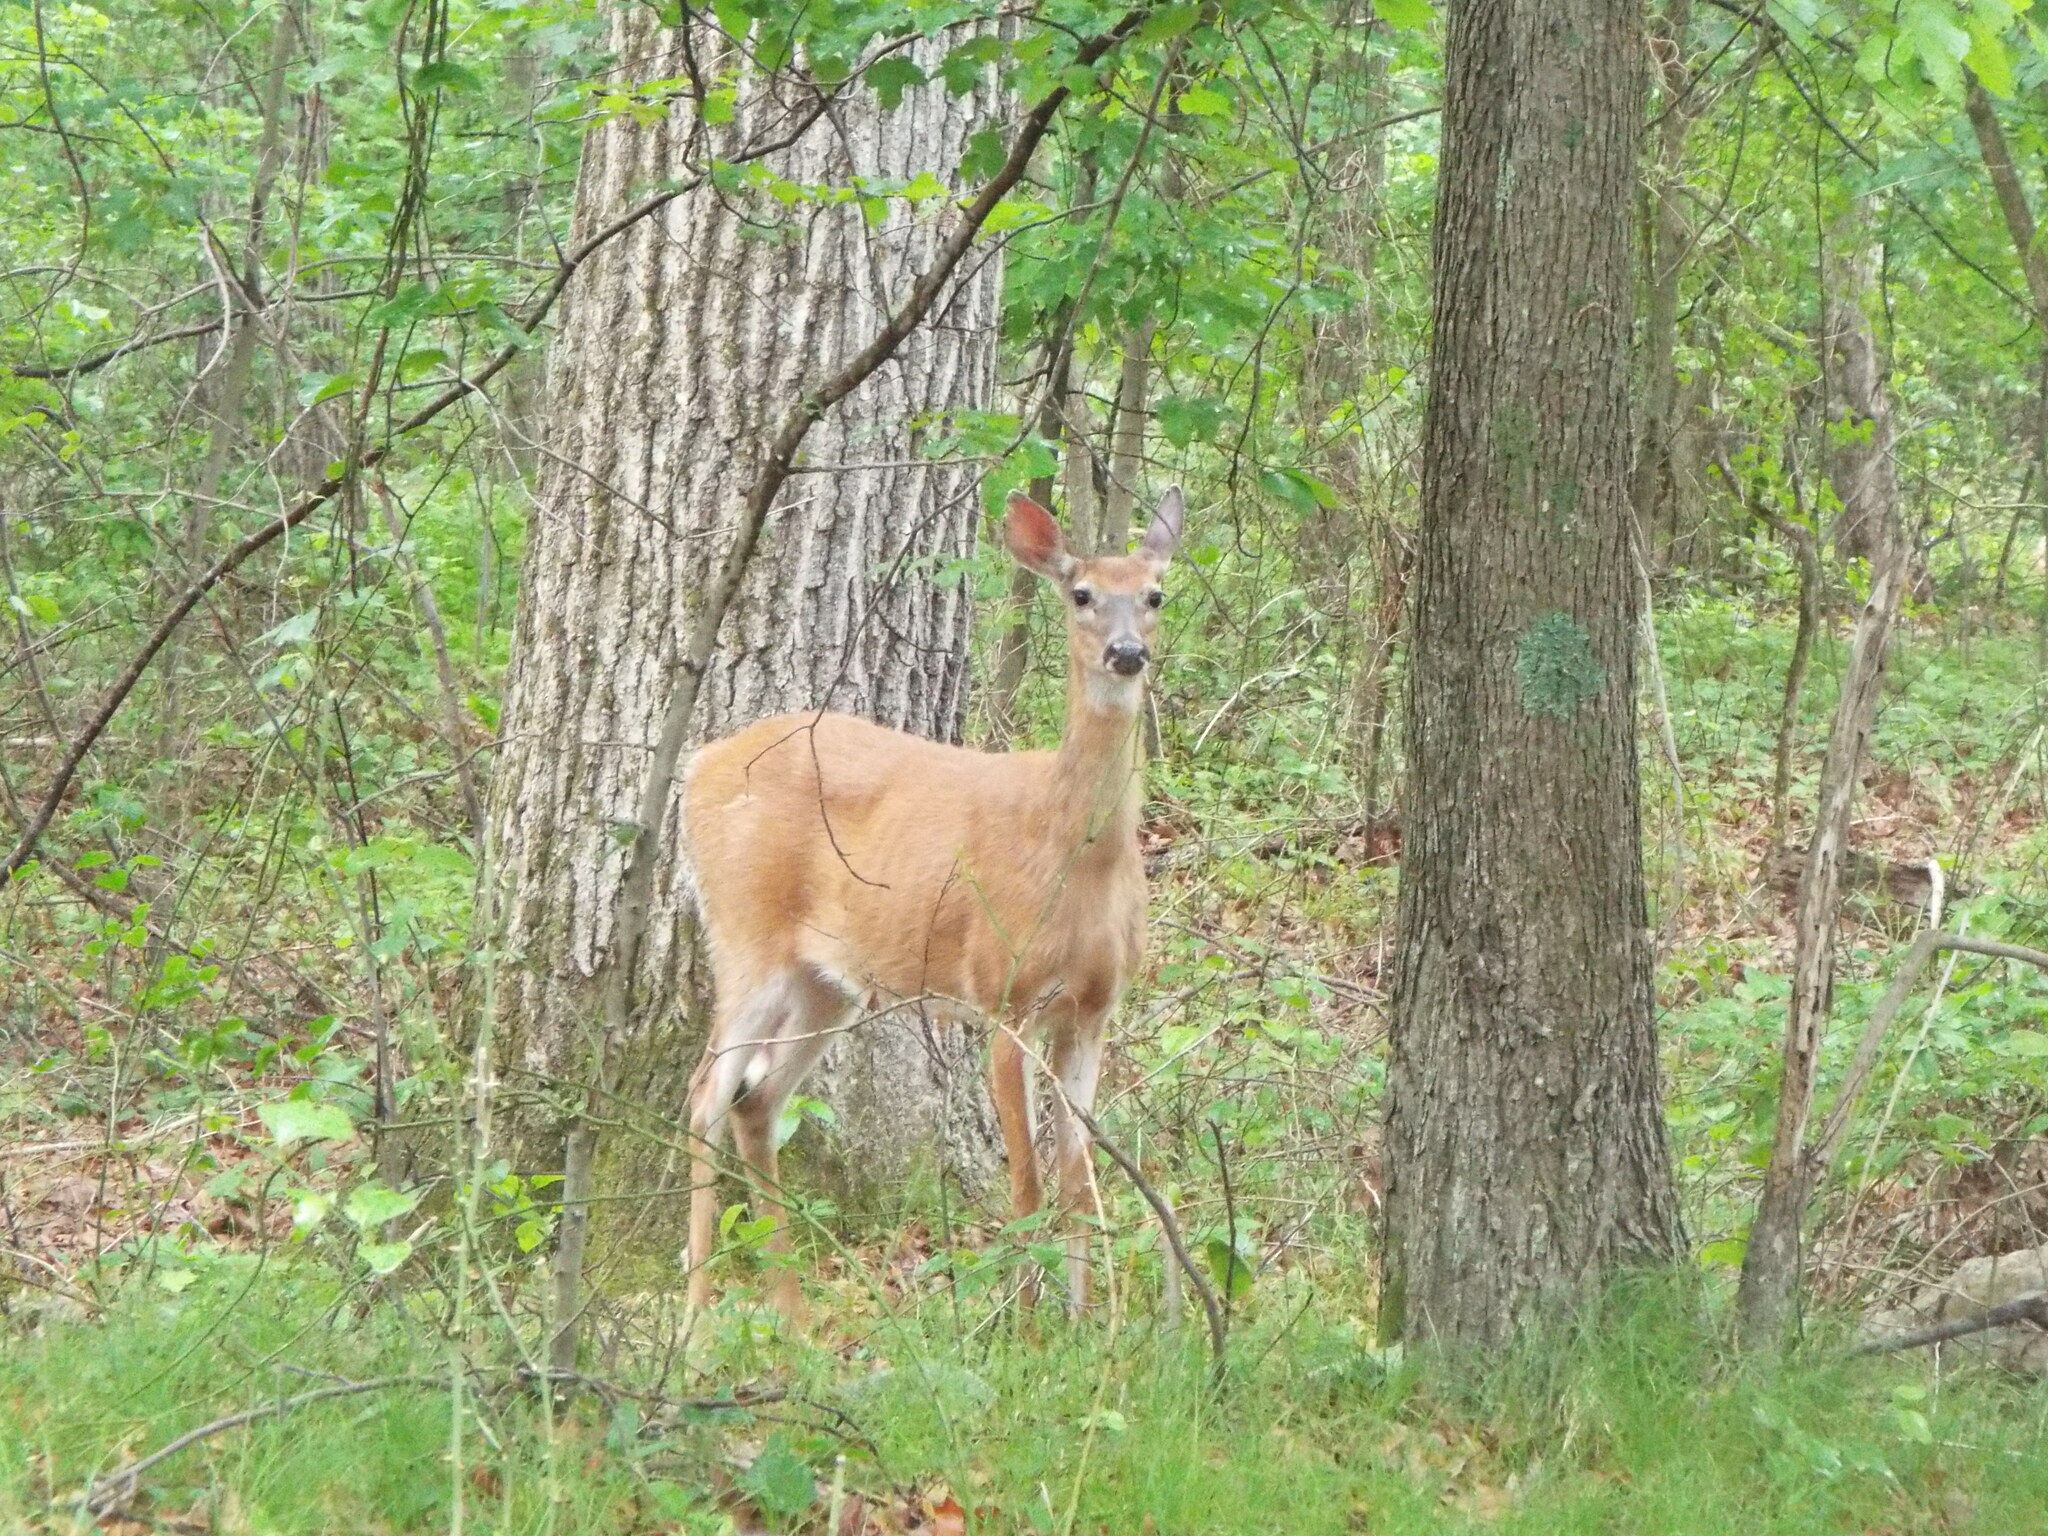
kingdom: Animalia
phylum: Chordata
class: Mammalia
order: Artiodactyla
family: Cervidae
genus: Odocoileus
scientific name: Odocoileus virginianus
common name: White-tailed deer
